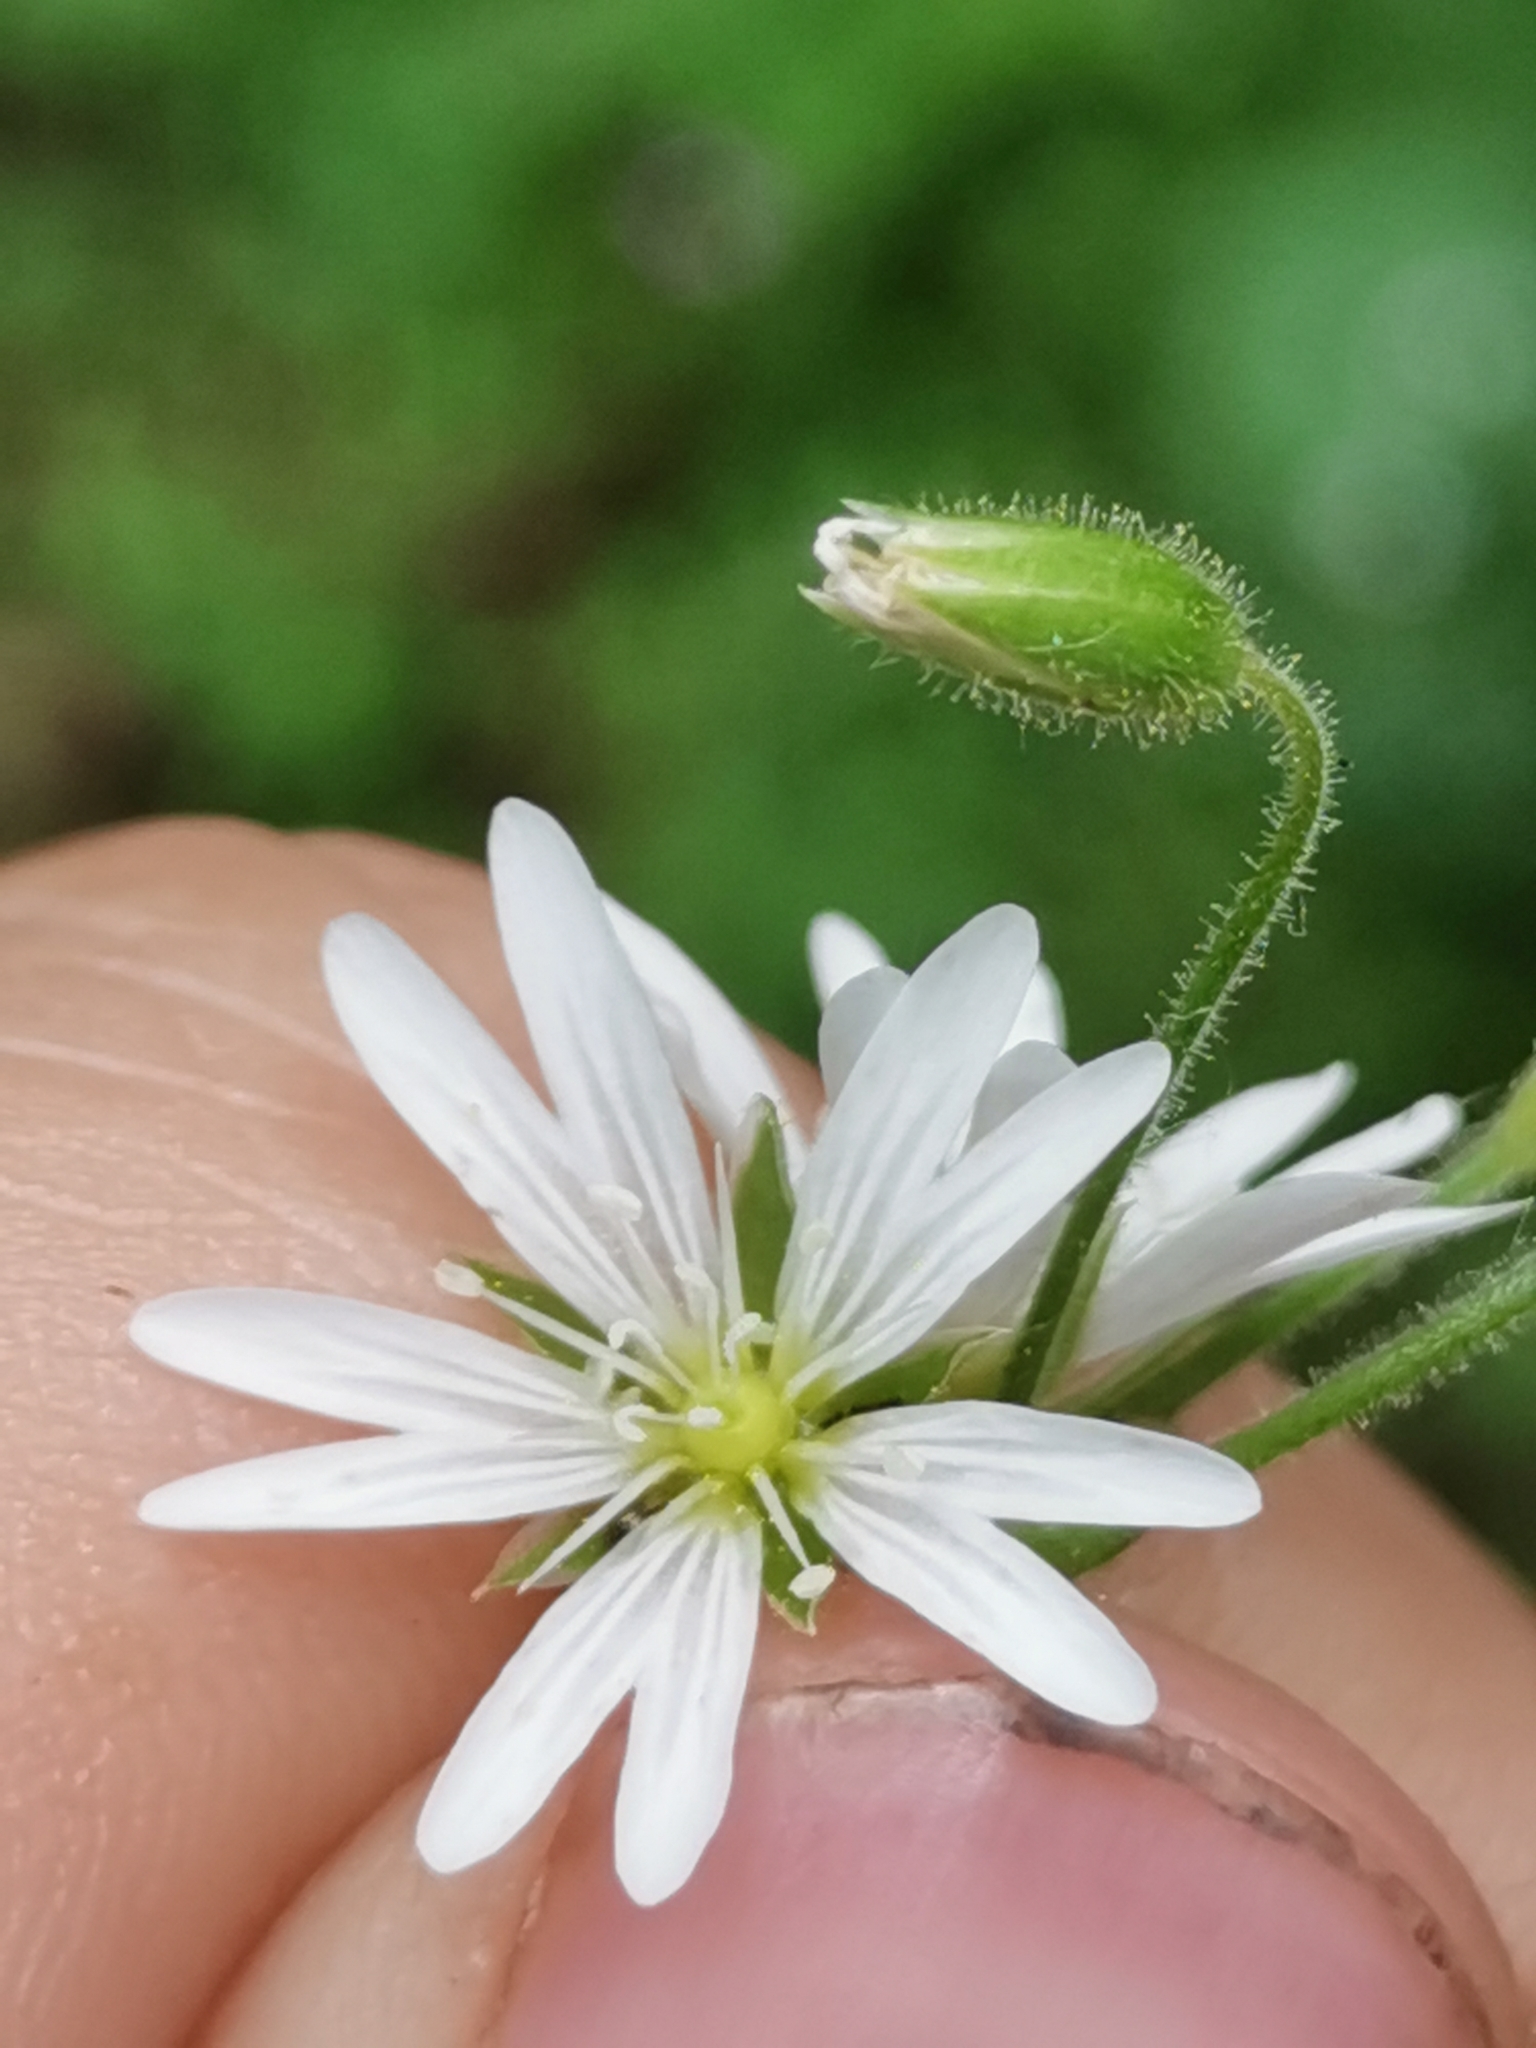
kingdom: Plantae
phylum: Tracheophyta
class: Magnoliopsida
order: Caryophyllales
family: Caryophyllaceae
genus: Cerastium
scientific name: Cerastium sylvaticum
